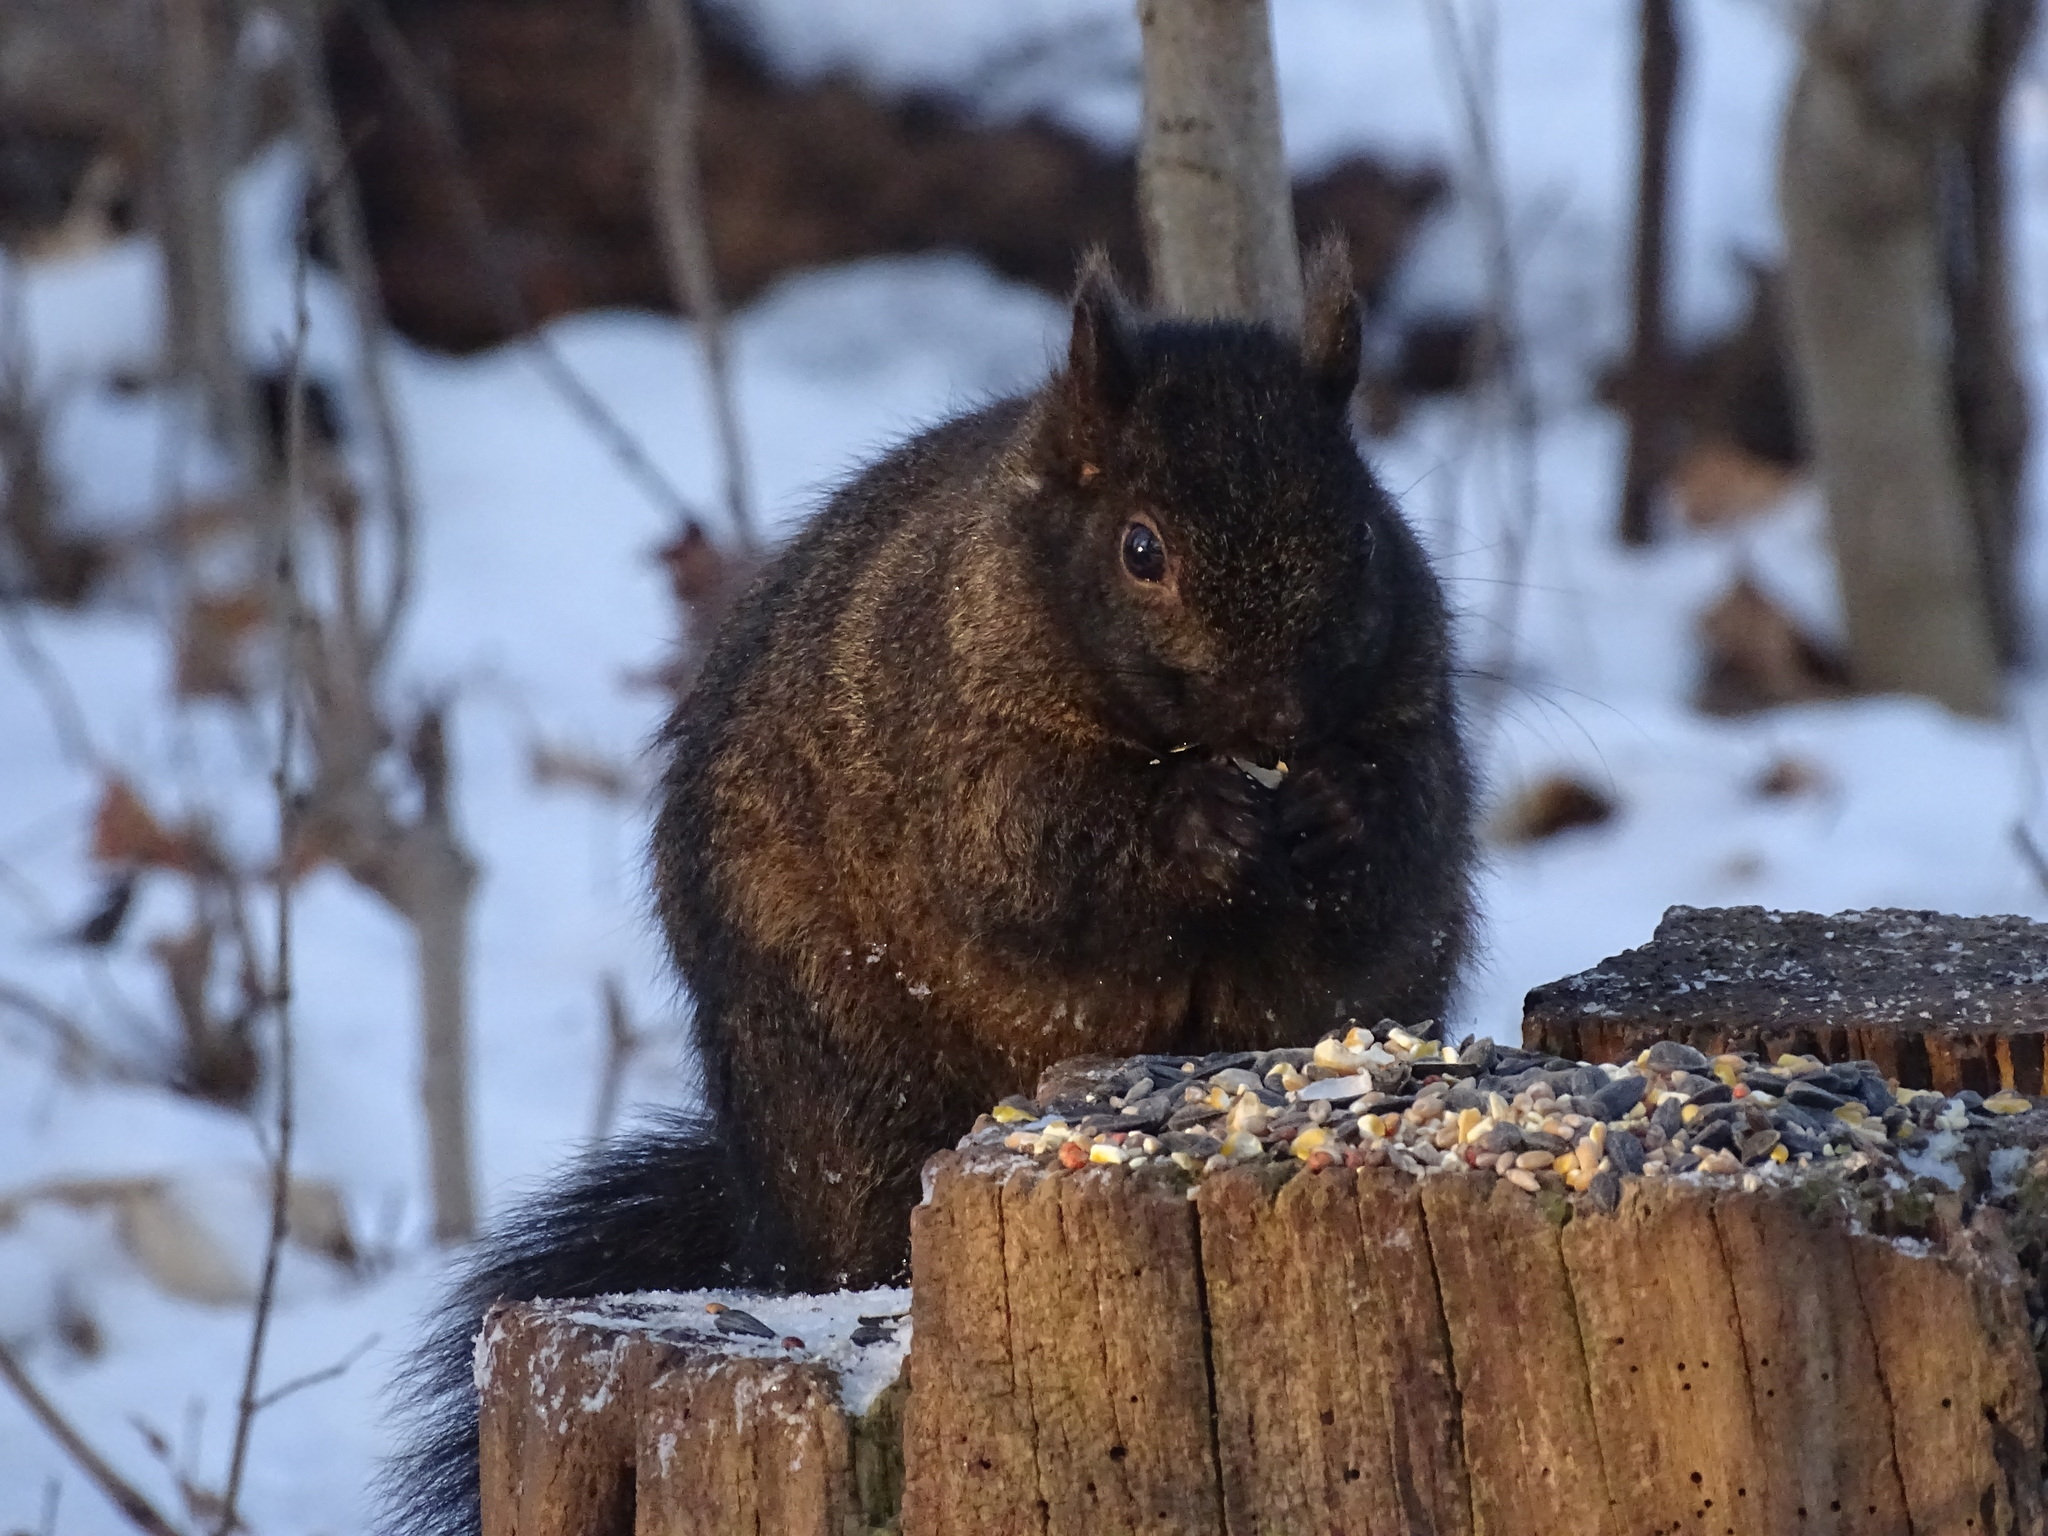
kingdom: Animalia
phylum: Chordata
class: Mammalia
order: Rodentia
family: Sciuridae
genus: Sciurus
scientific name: Sciurus carolinensis
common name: Eastern gray squirrel
